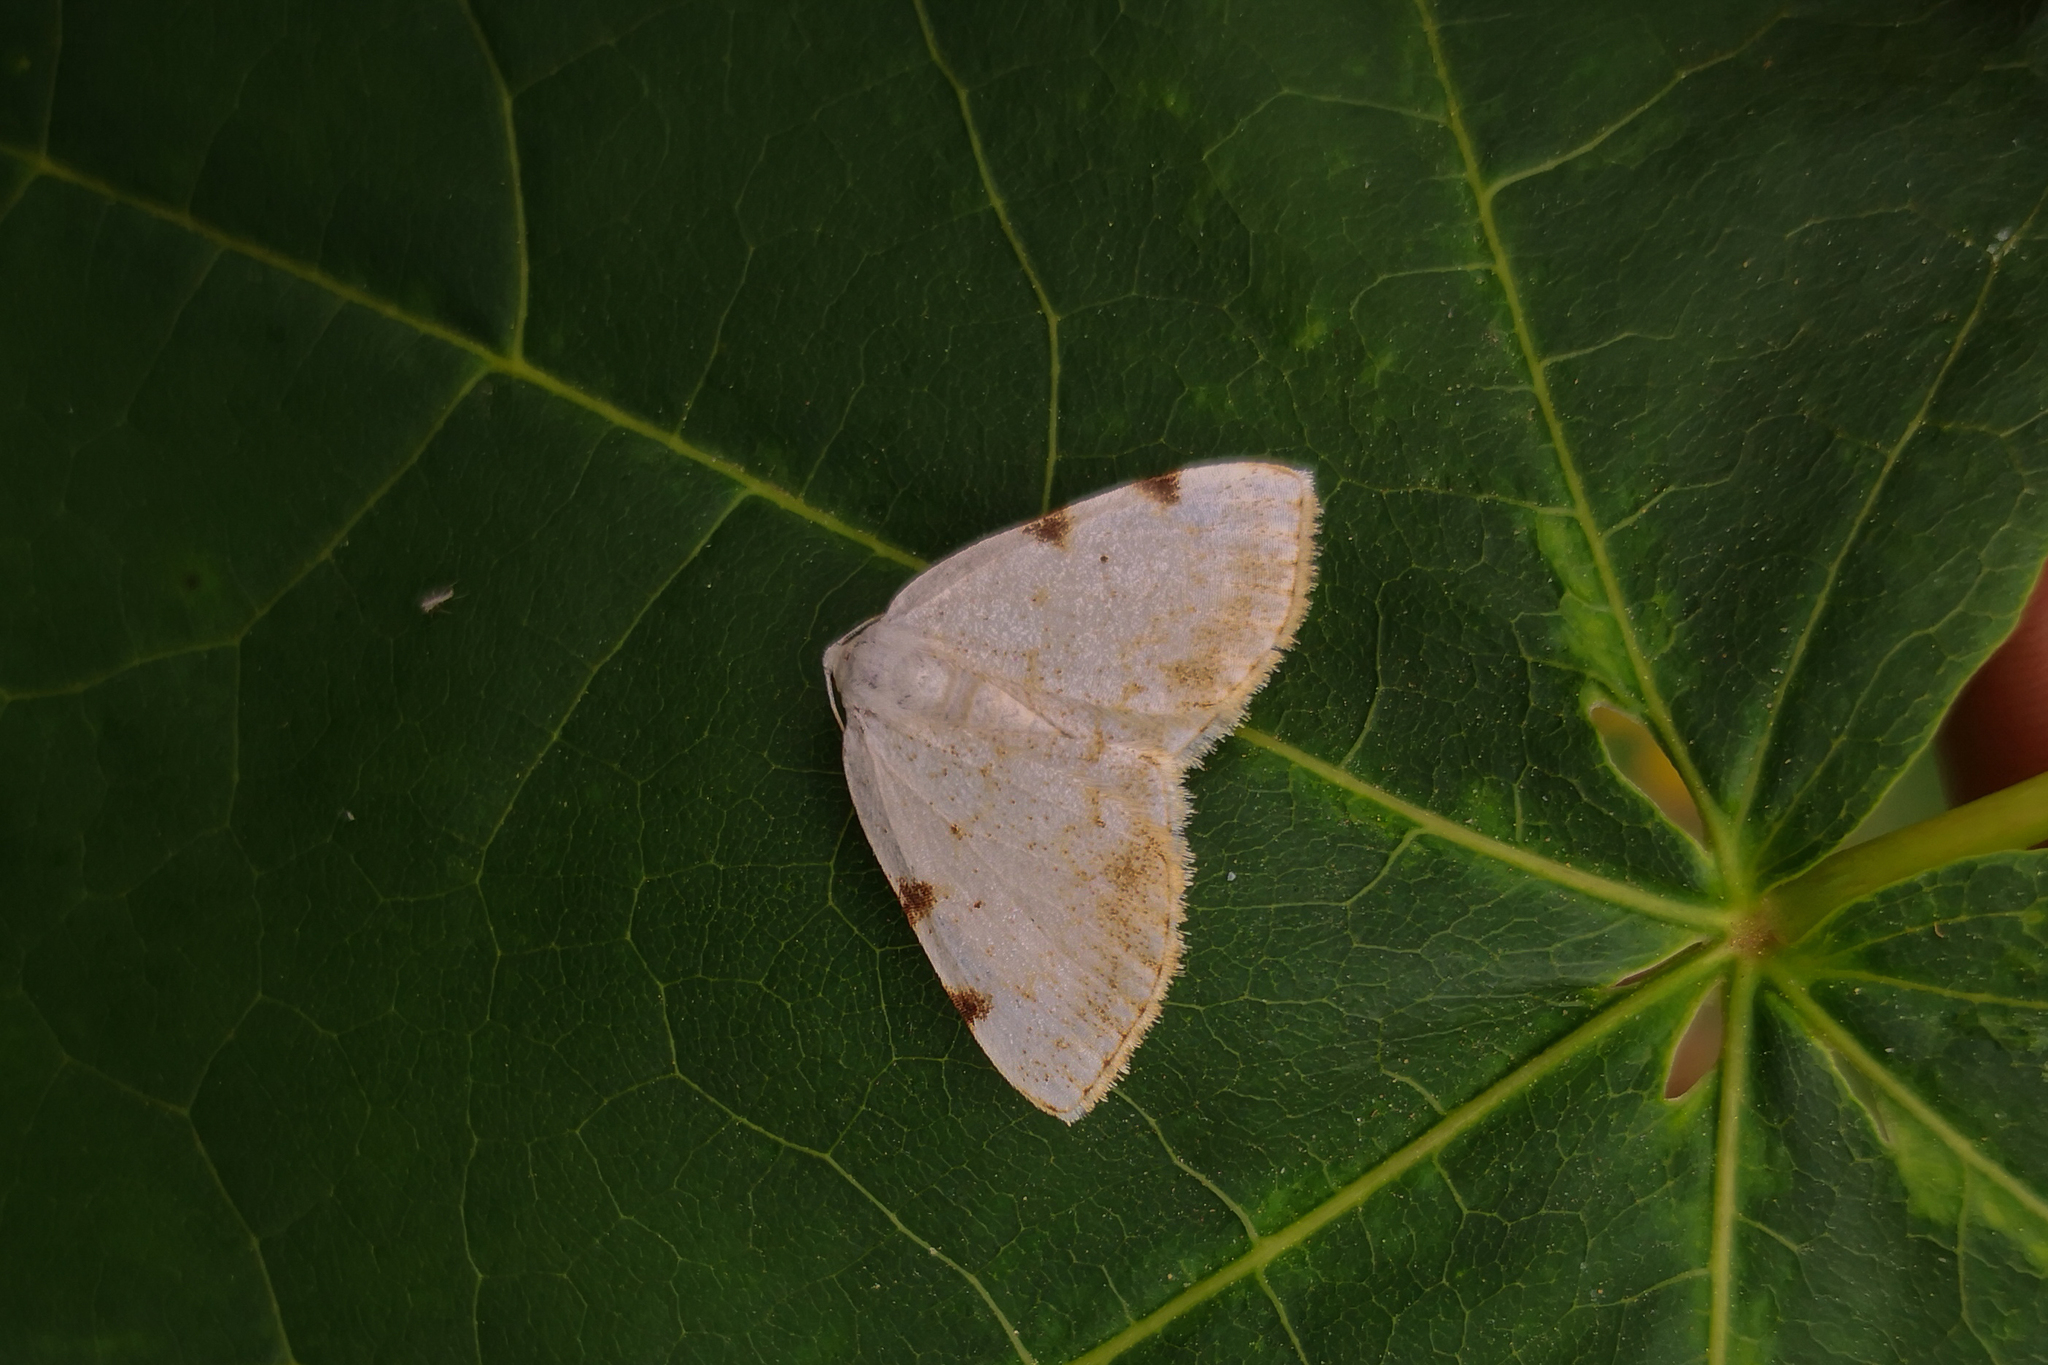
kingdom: Animalia
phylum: Arthropoda
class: Insecta
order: Lepidoptera
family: Geometridae
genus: Lomographa
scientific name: Lomographa bimaculata
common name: White-pinion spotted
